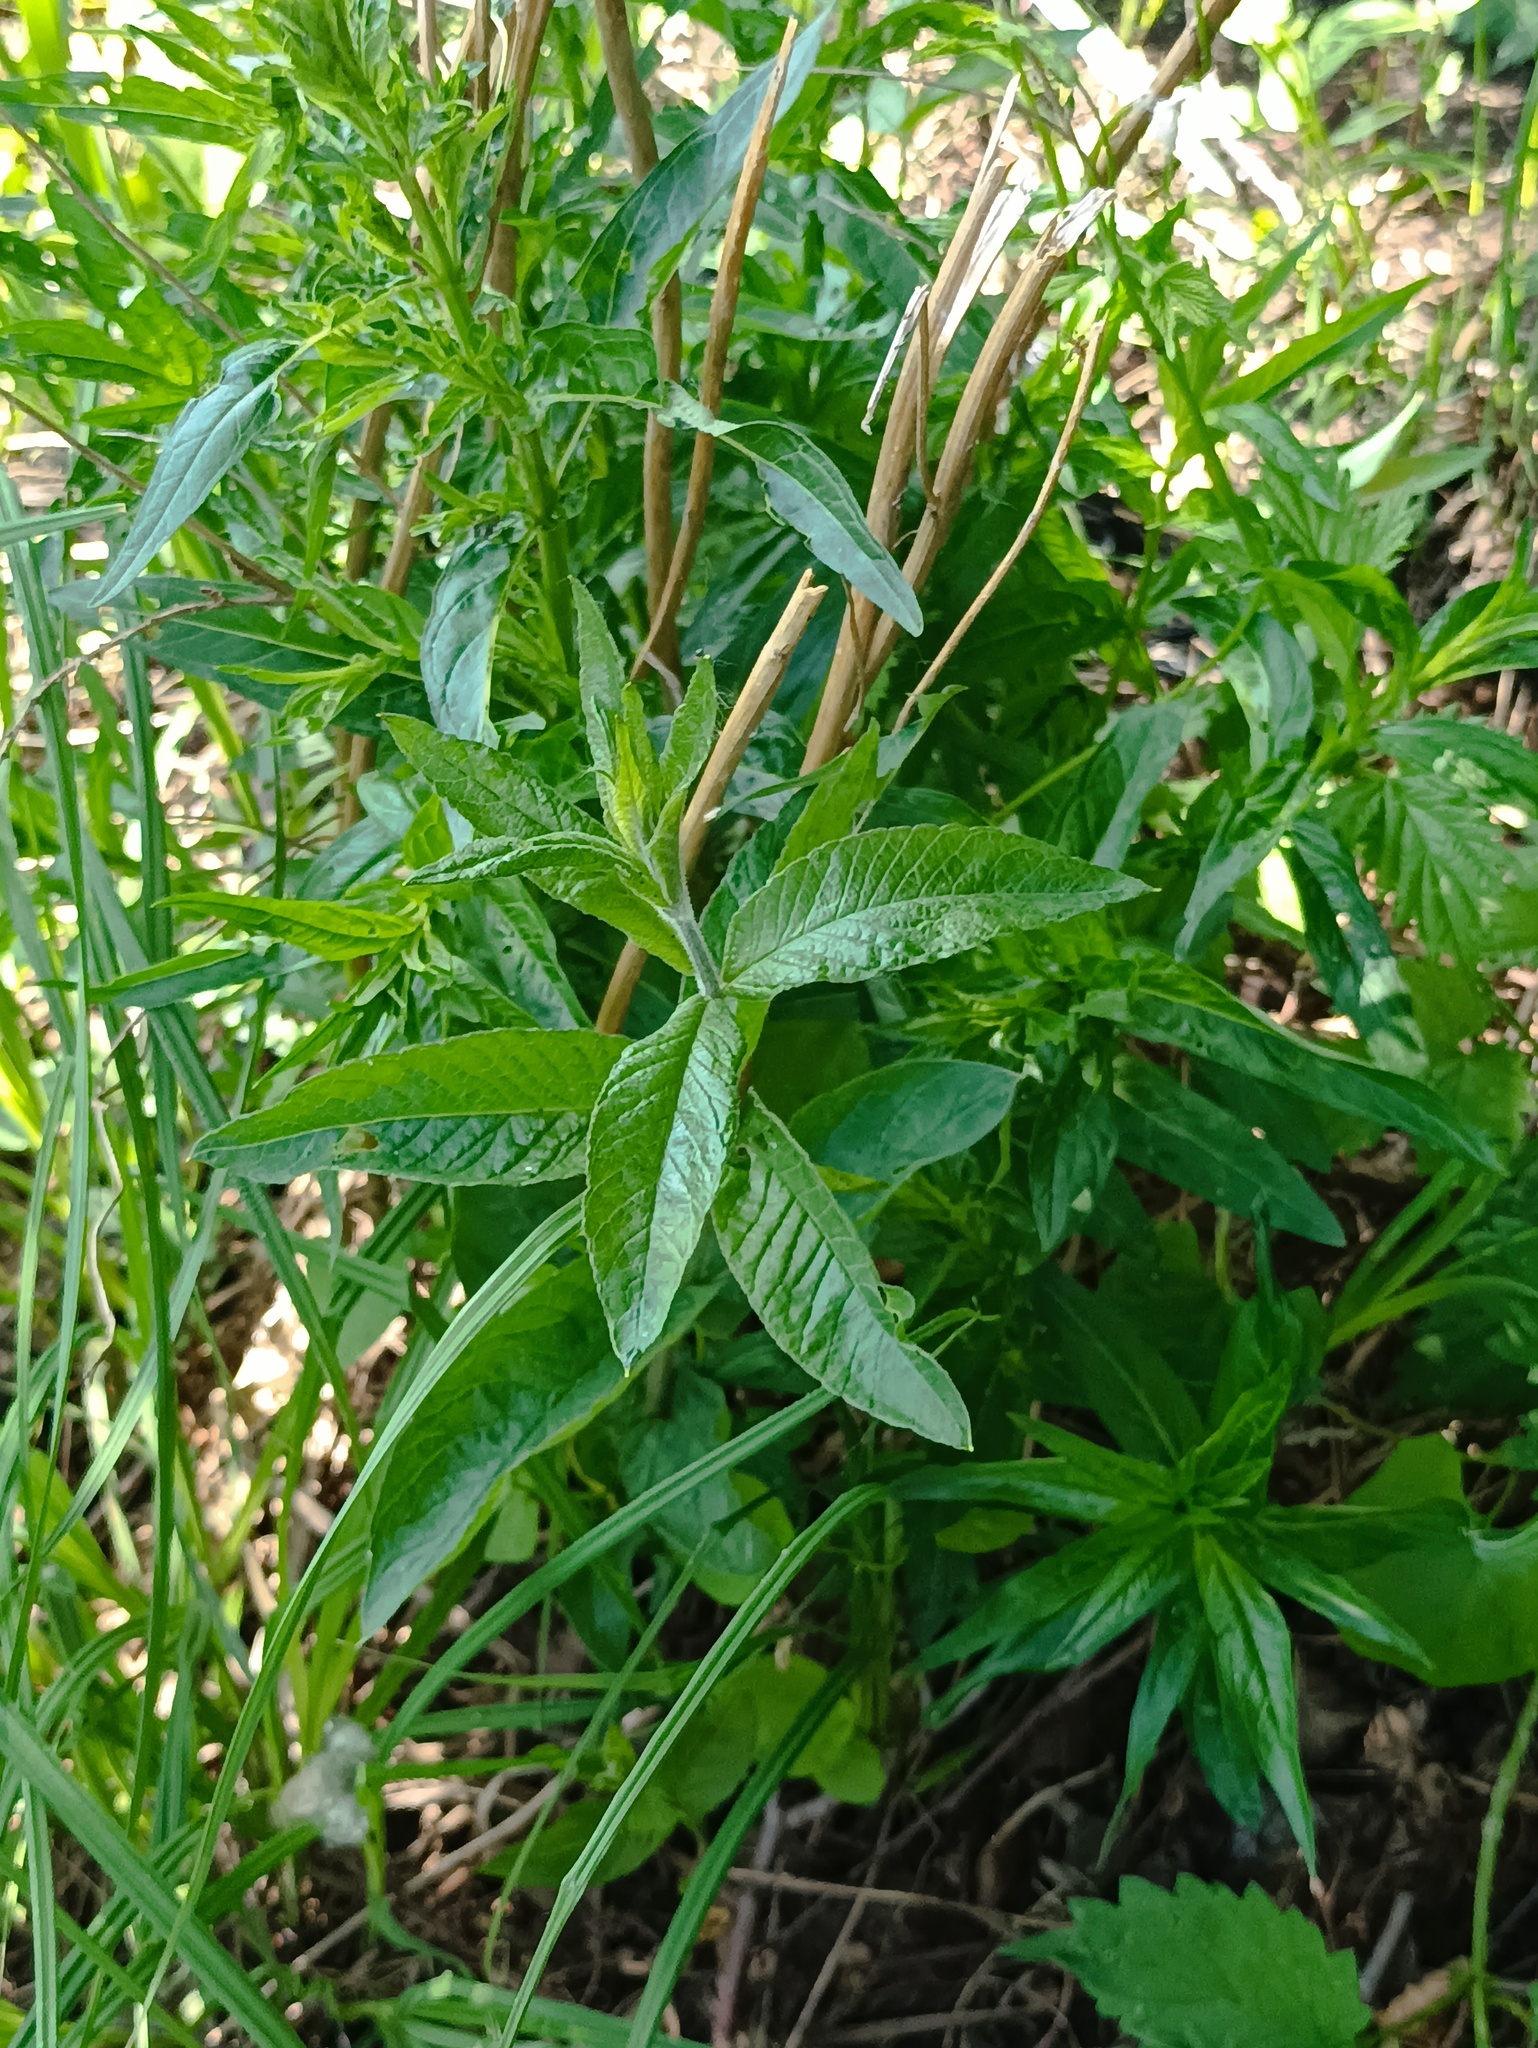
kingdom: Plantae
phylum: Tracheophyta
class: Magnoliopsida
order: Ericales
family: Primulaceae
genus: Lysimachia
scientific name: Lysimachia vulgaris
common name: Yellow loosestrife
